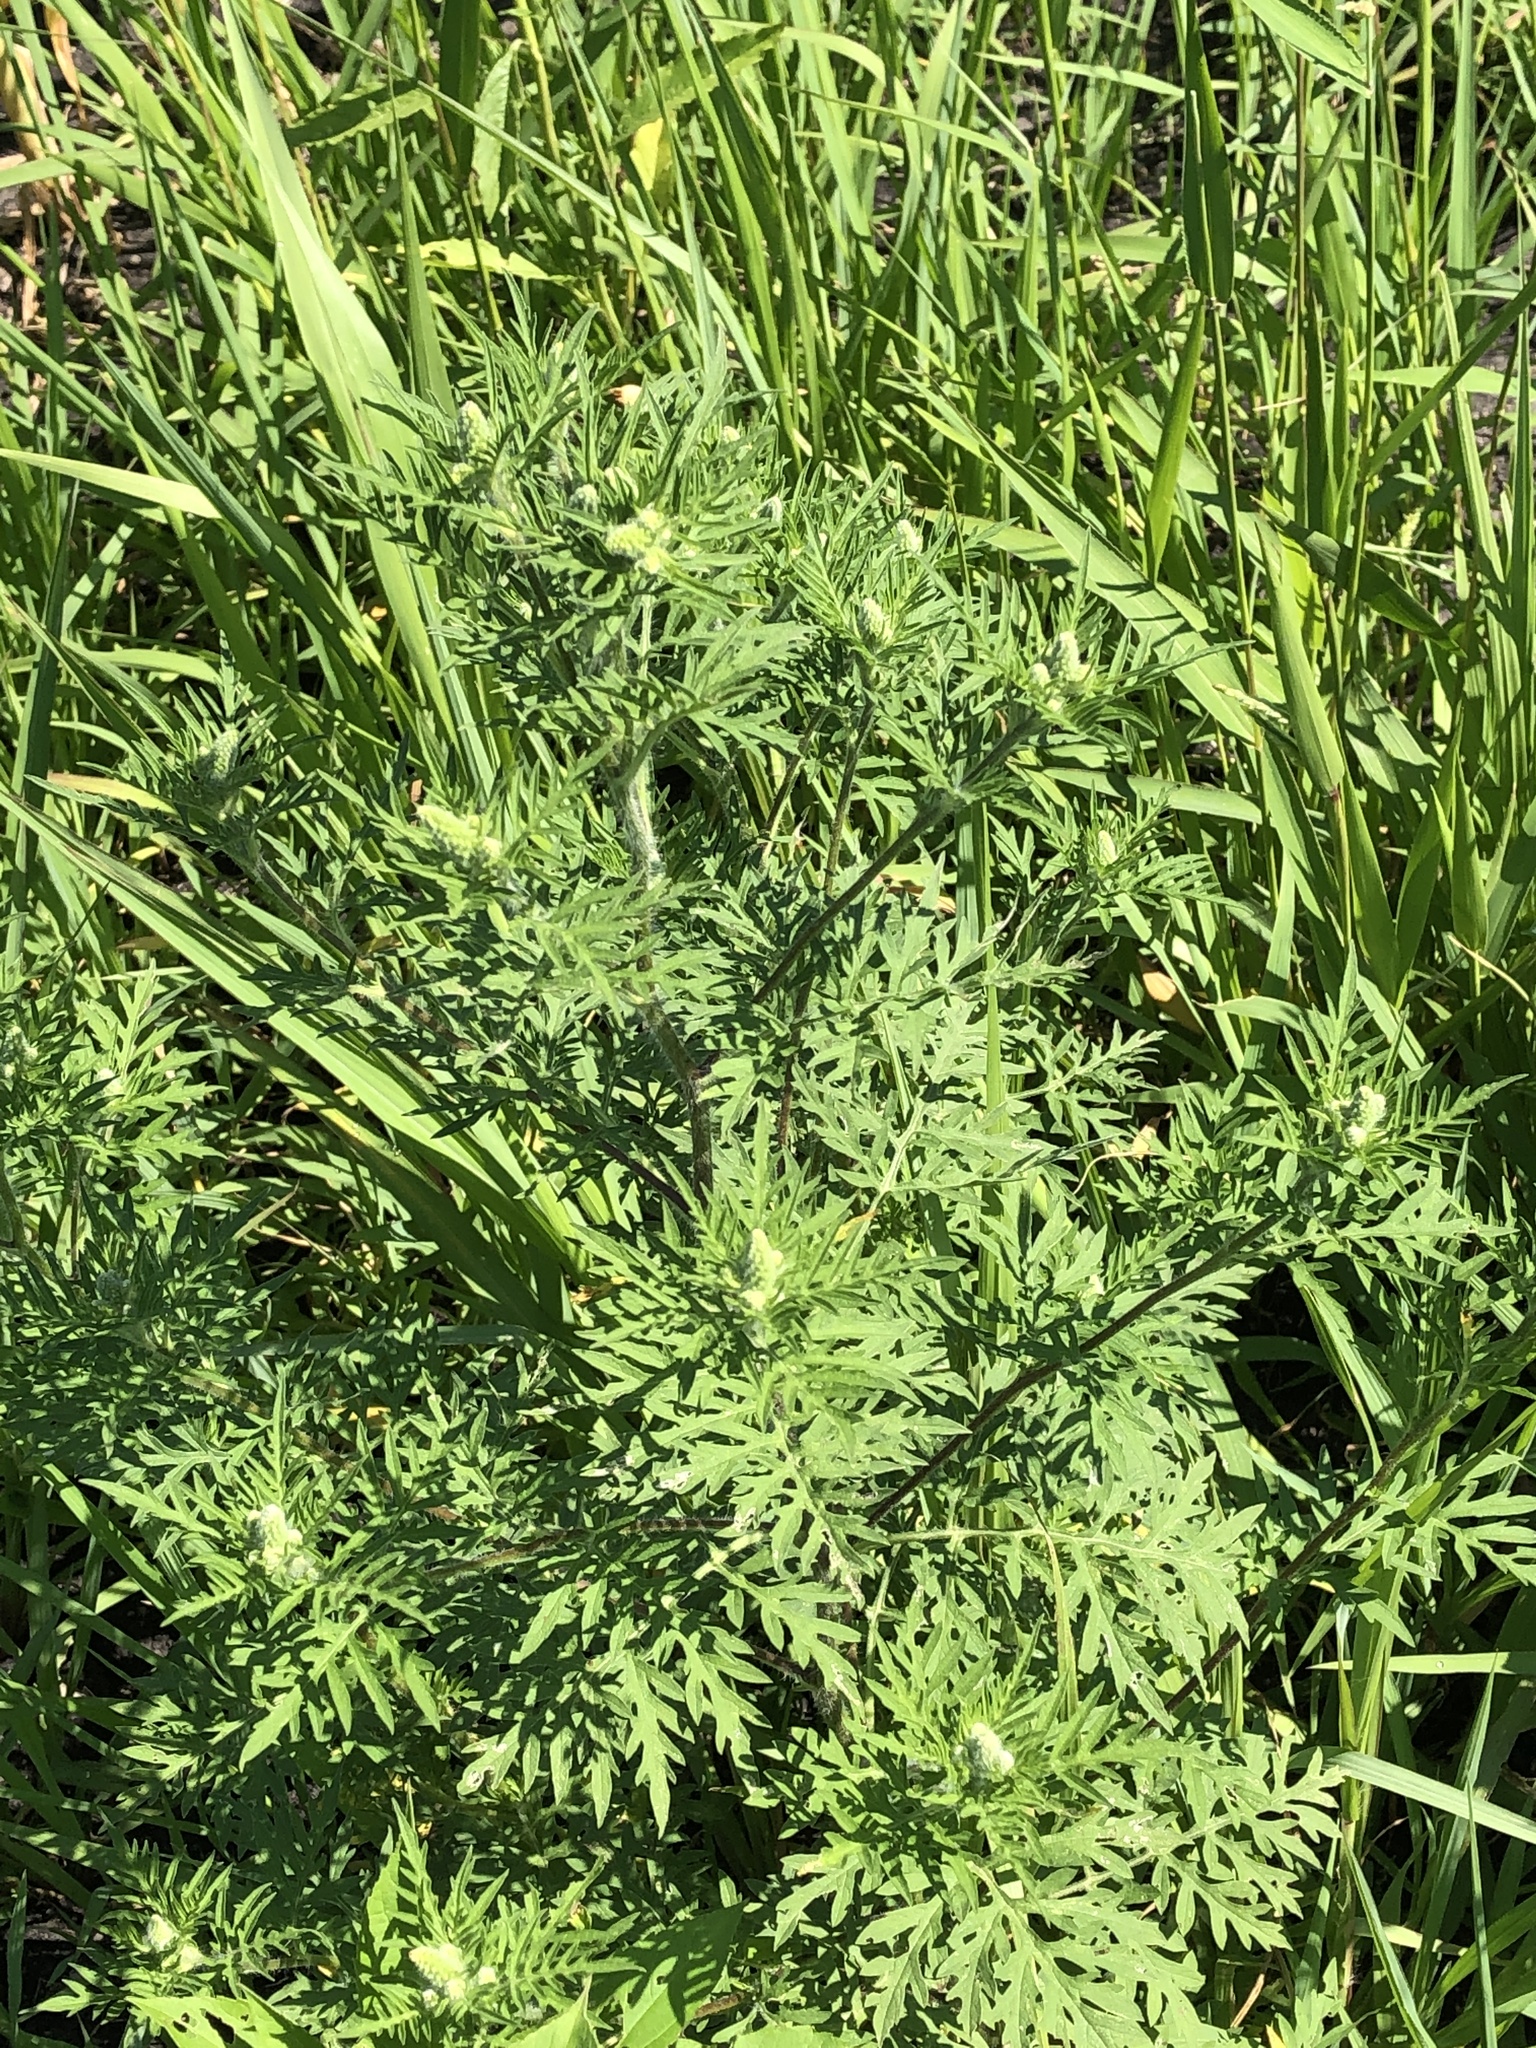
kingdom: Plantae
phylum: Tracheophyta
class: Magnoliopsida
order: Asterales
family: Asteraceae
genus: Ambrosia
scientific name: Ambrosia artemisiifolia
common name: Annual ragweed
